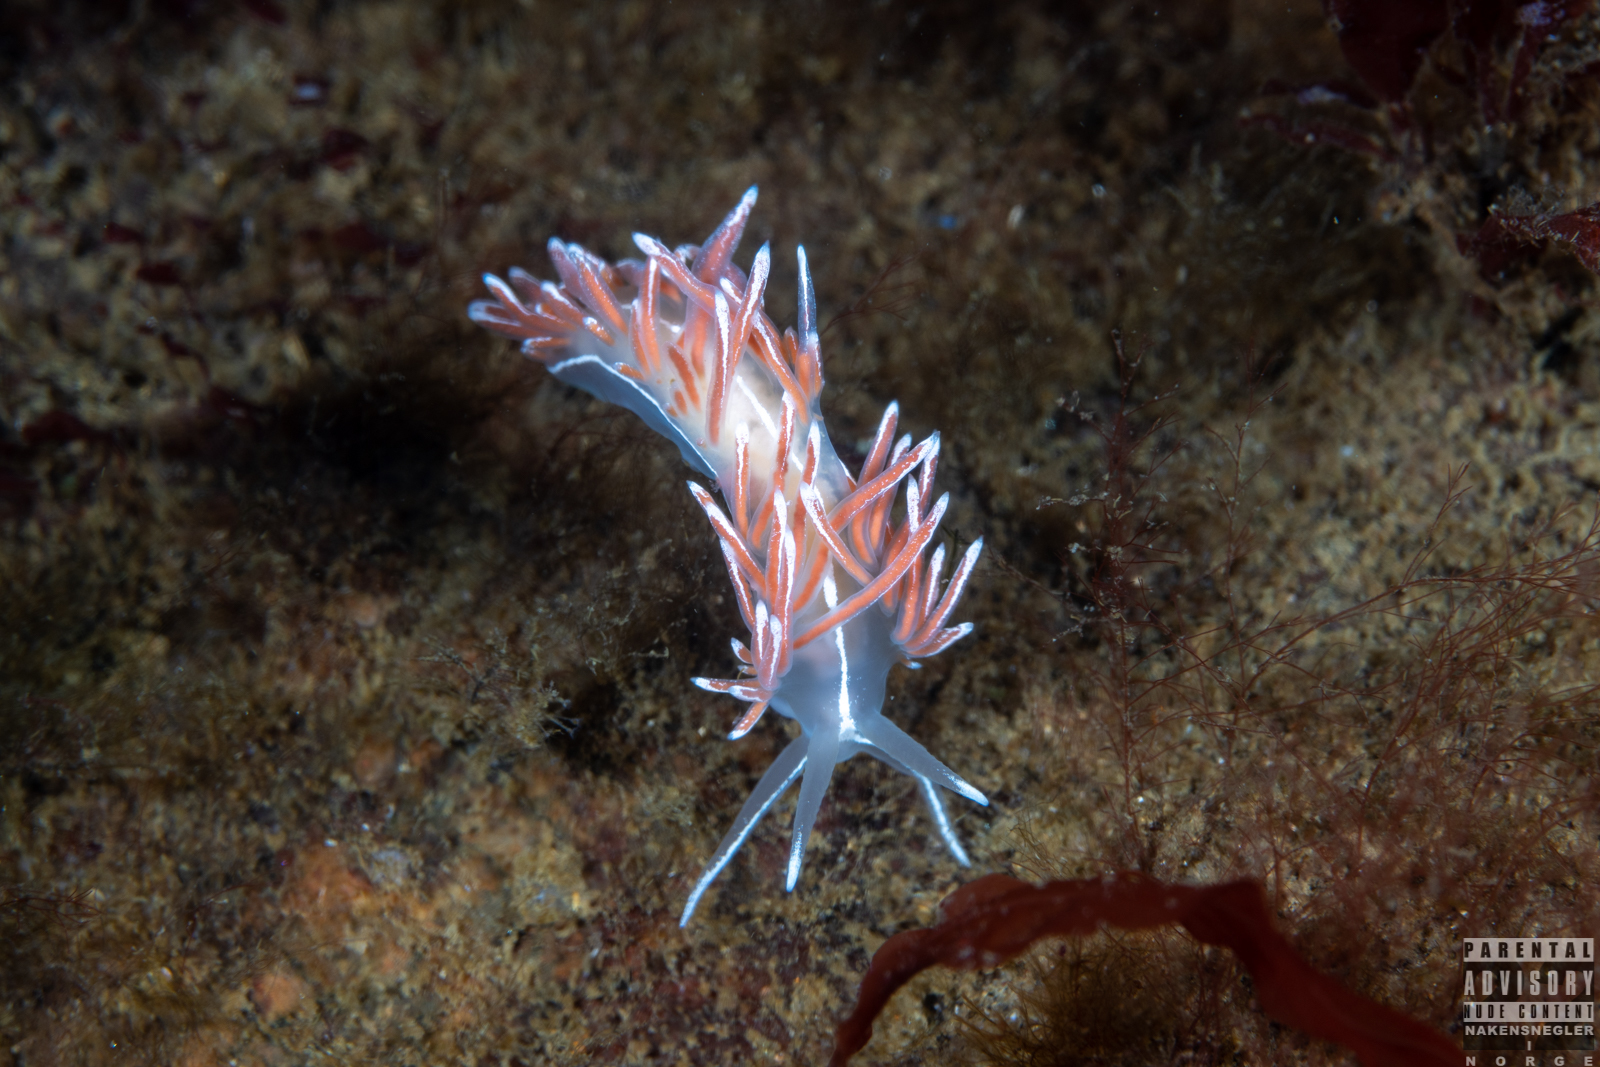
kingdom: Animalia
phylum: Mollusca
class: Gastropoda
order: Nudibranchia
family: Coryphellidae
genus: Coryphella
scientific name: Coryphella lineata
